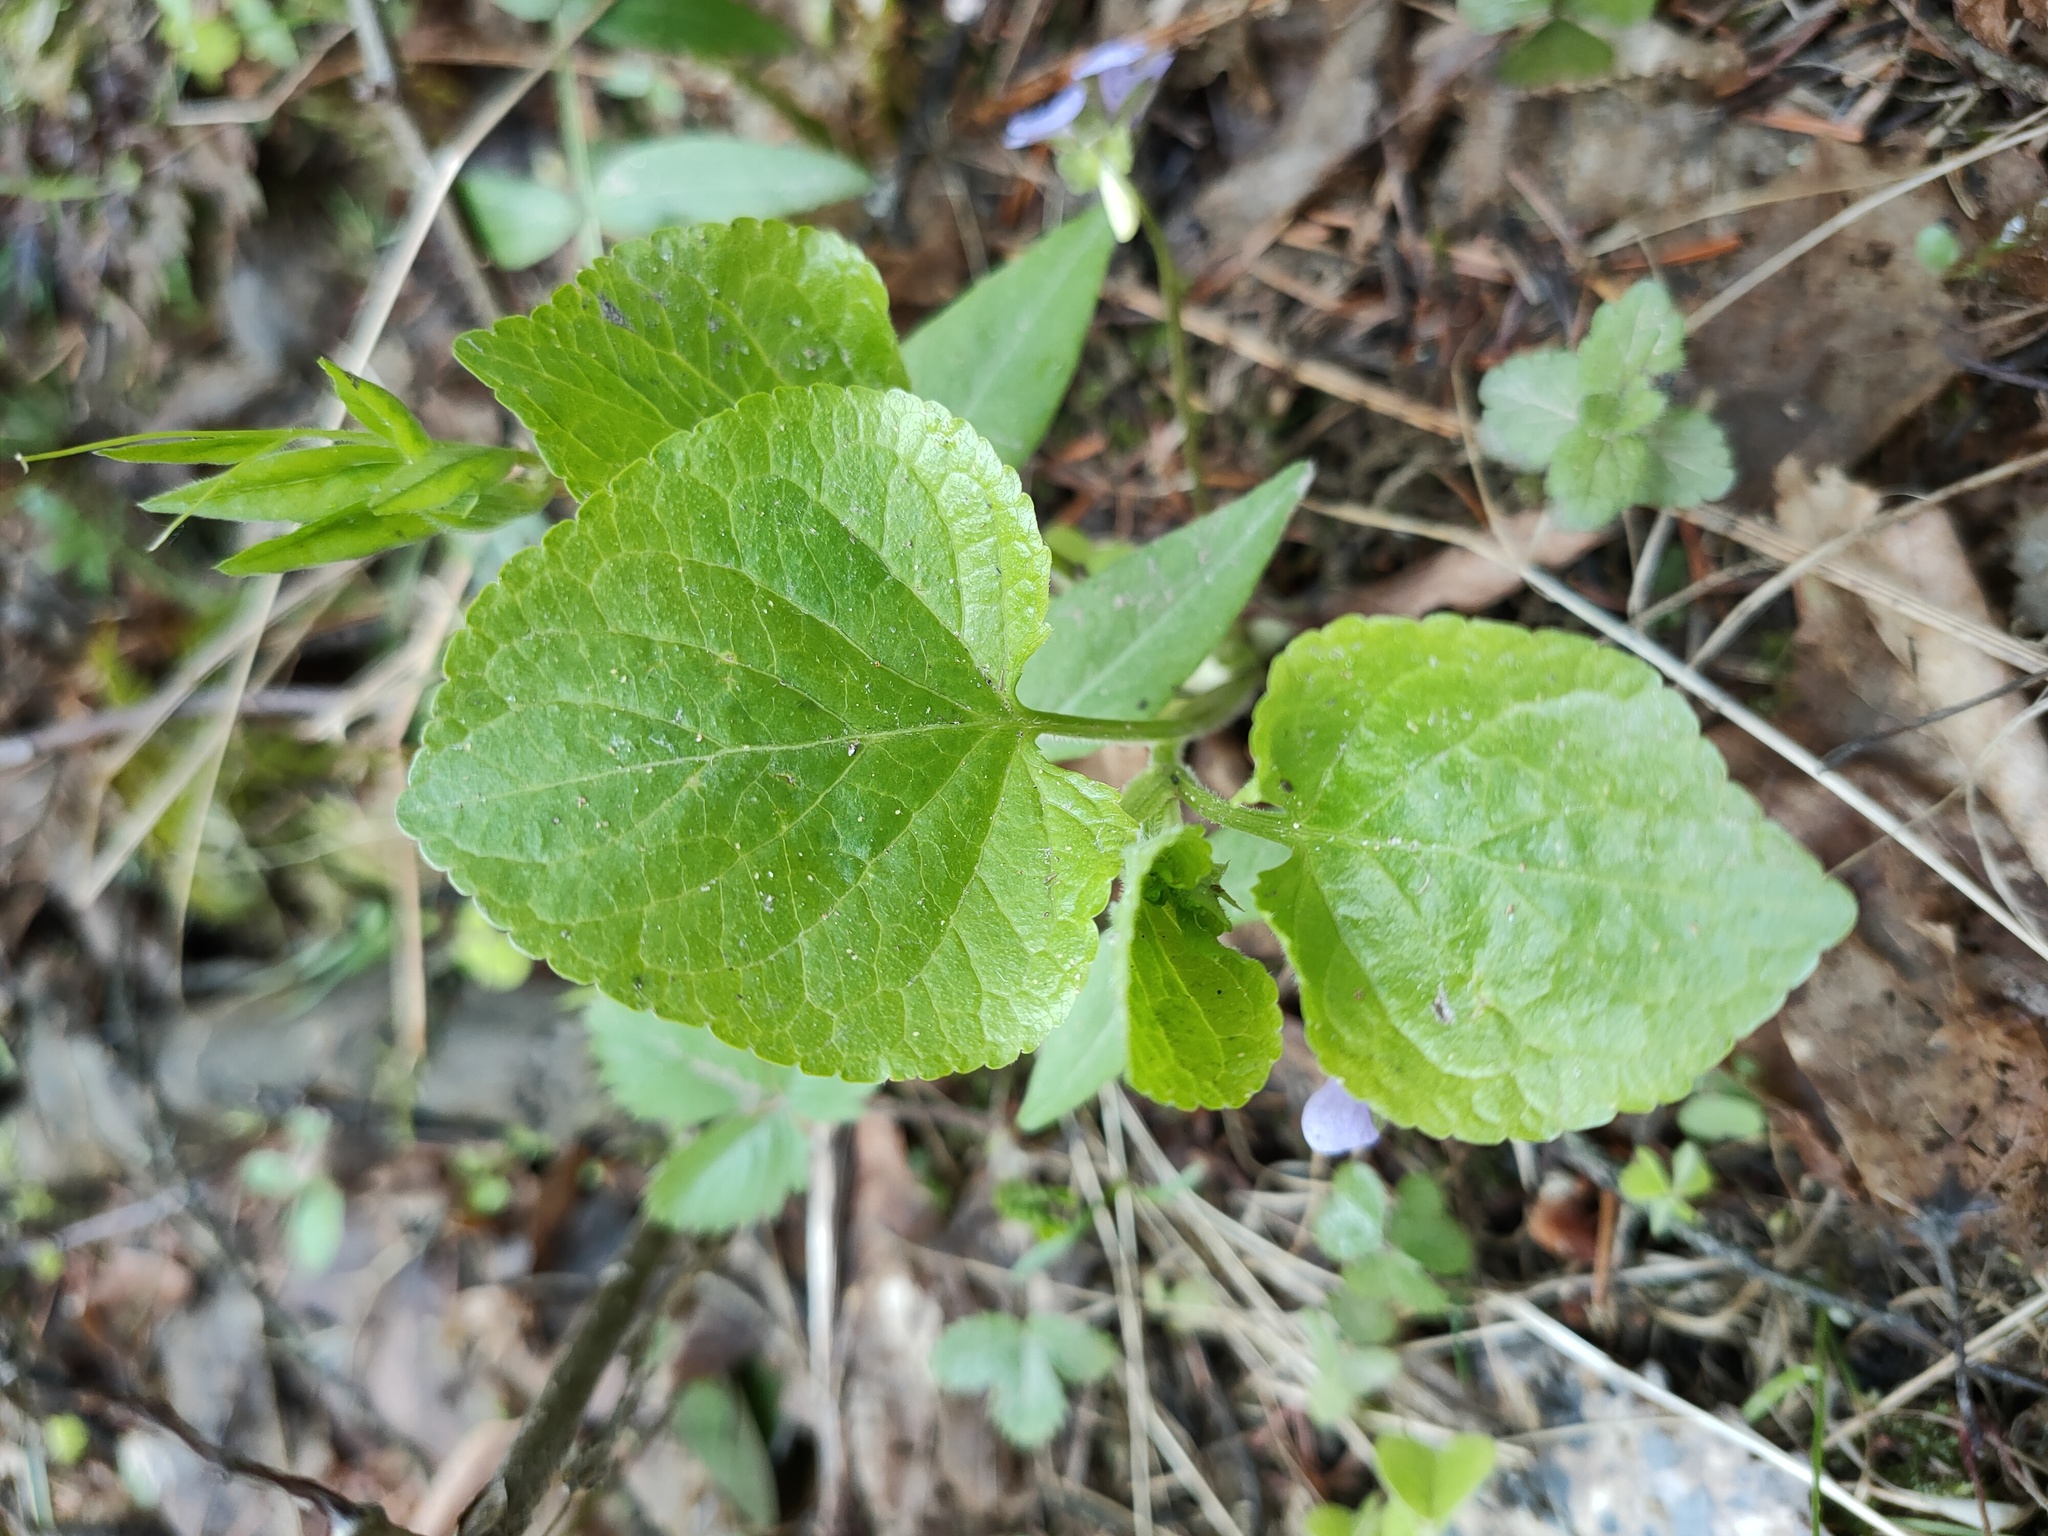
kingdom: Plantae
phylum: Tracheophyta
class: Magnoliopsida
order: Malpighiales
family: Violaceae
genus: Viola
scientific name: Viola mirabilis
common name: Wonder violet
